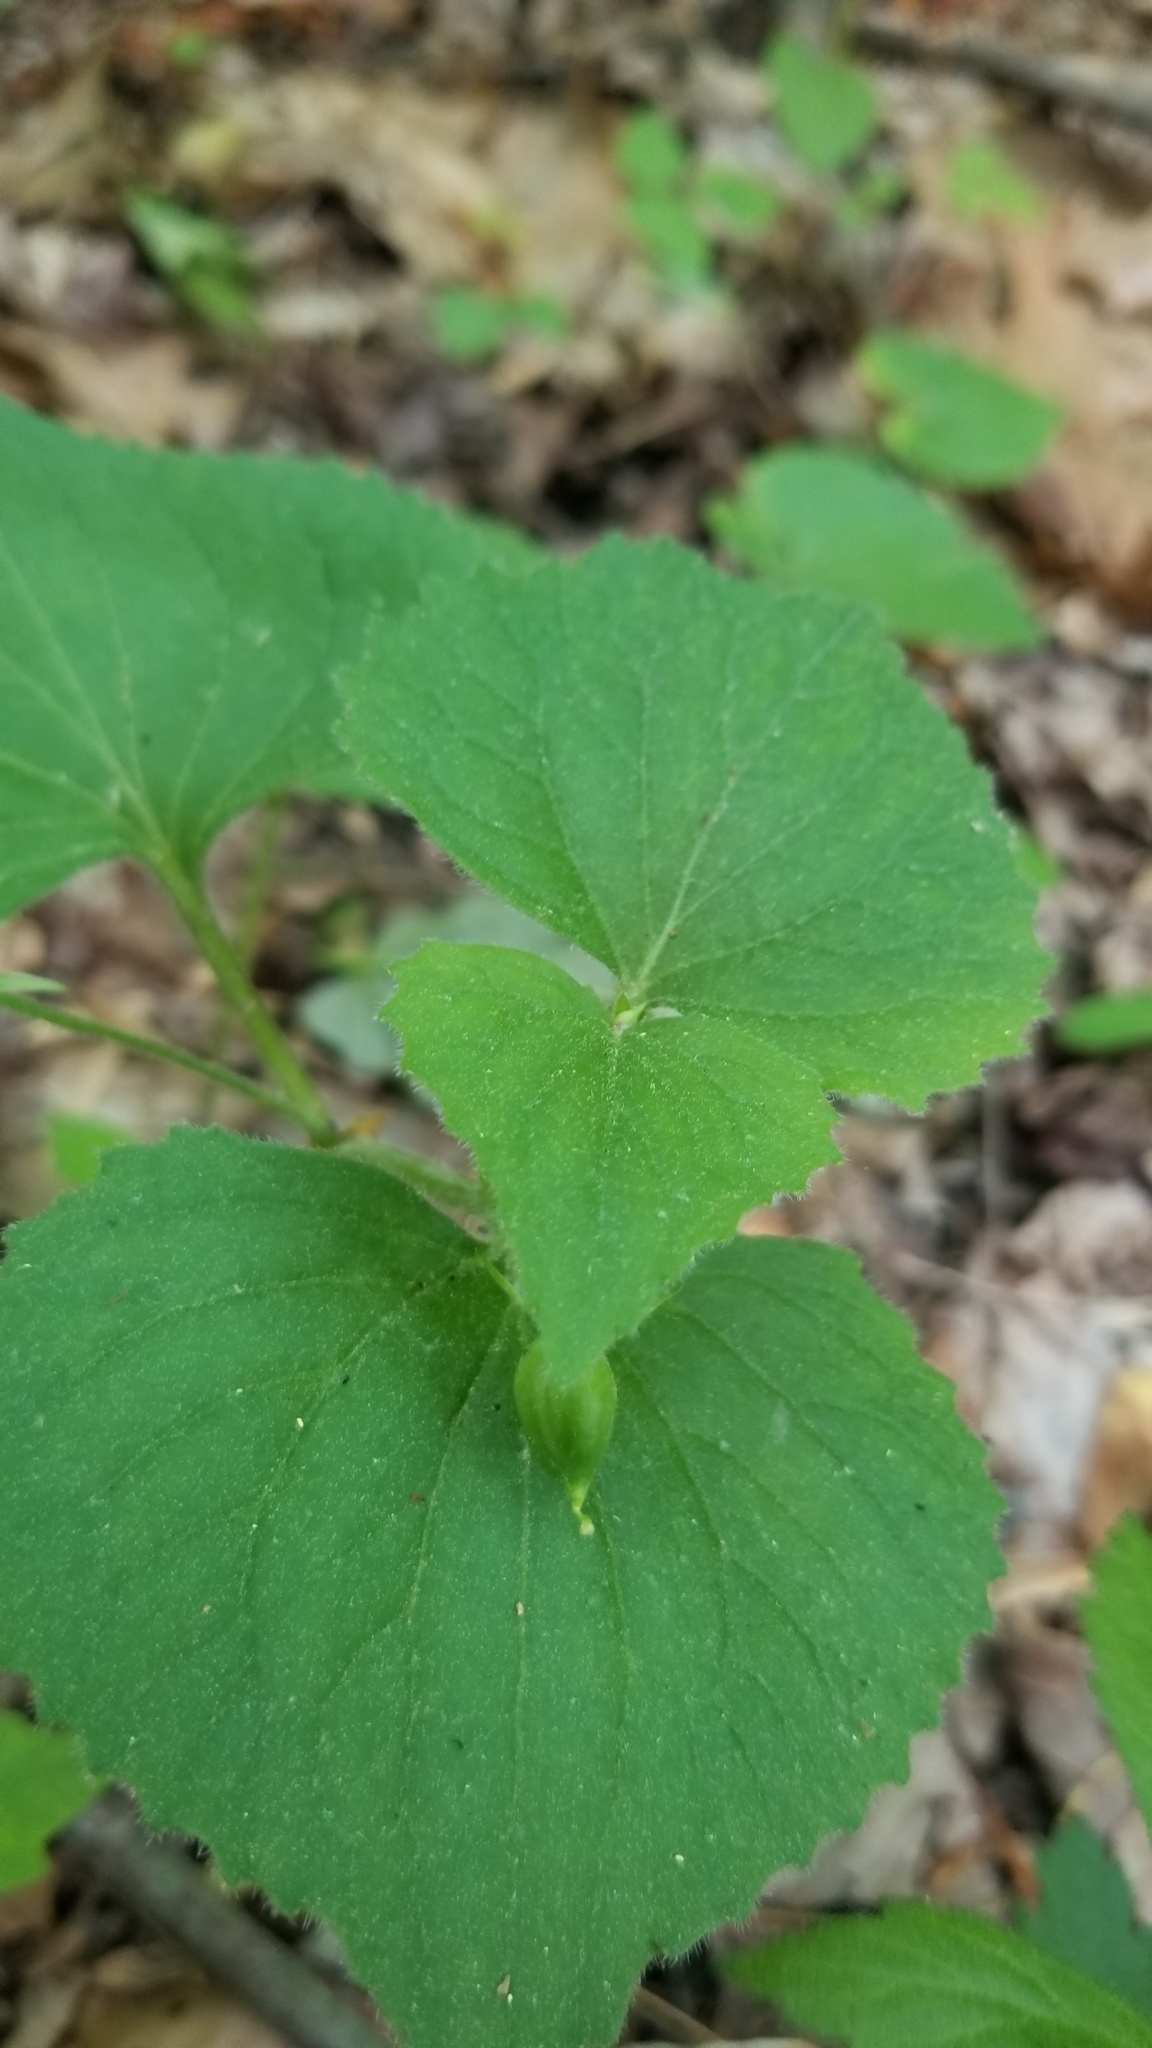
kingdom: Plantae
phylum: Tracheophyta
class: Magnoliopsida
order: Malpighiales
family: Violaceae
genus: Viola
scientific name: Viola pubescens
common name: Yellow forest violet
